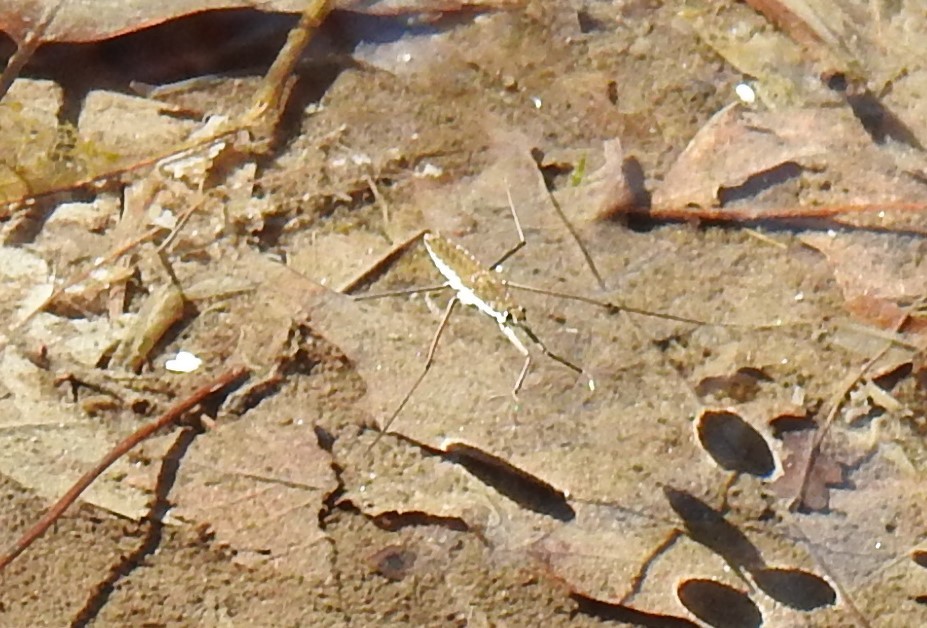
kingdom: Animalia
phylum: Arthropoda
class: Insecta
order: Hemiptera
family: Gerridae
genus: Aquarius
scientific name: Aquarius remigis
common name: Common water strider
